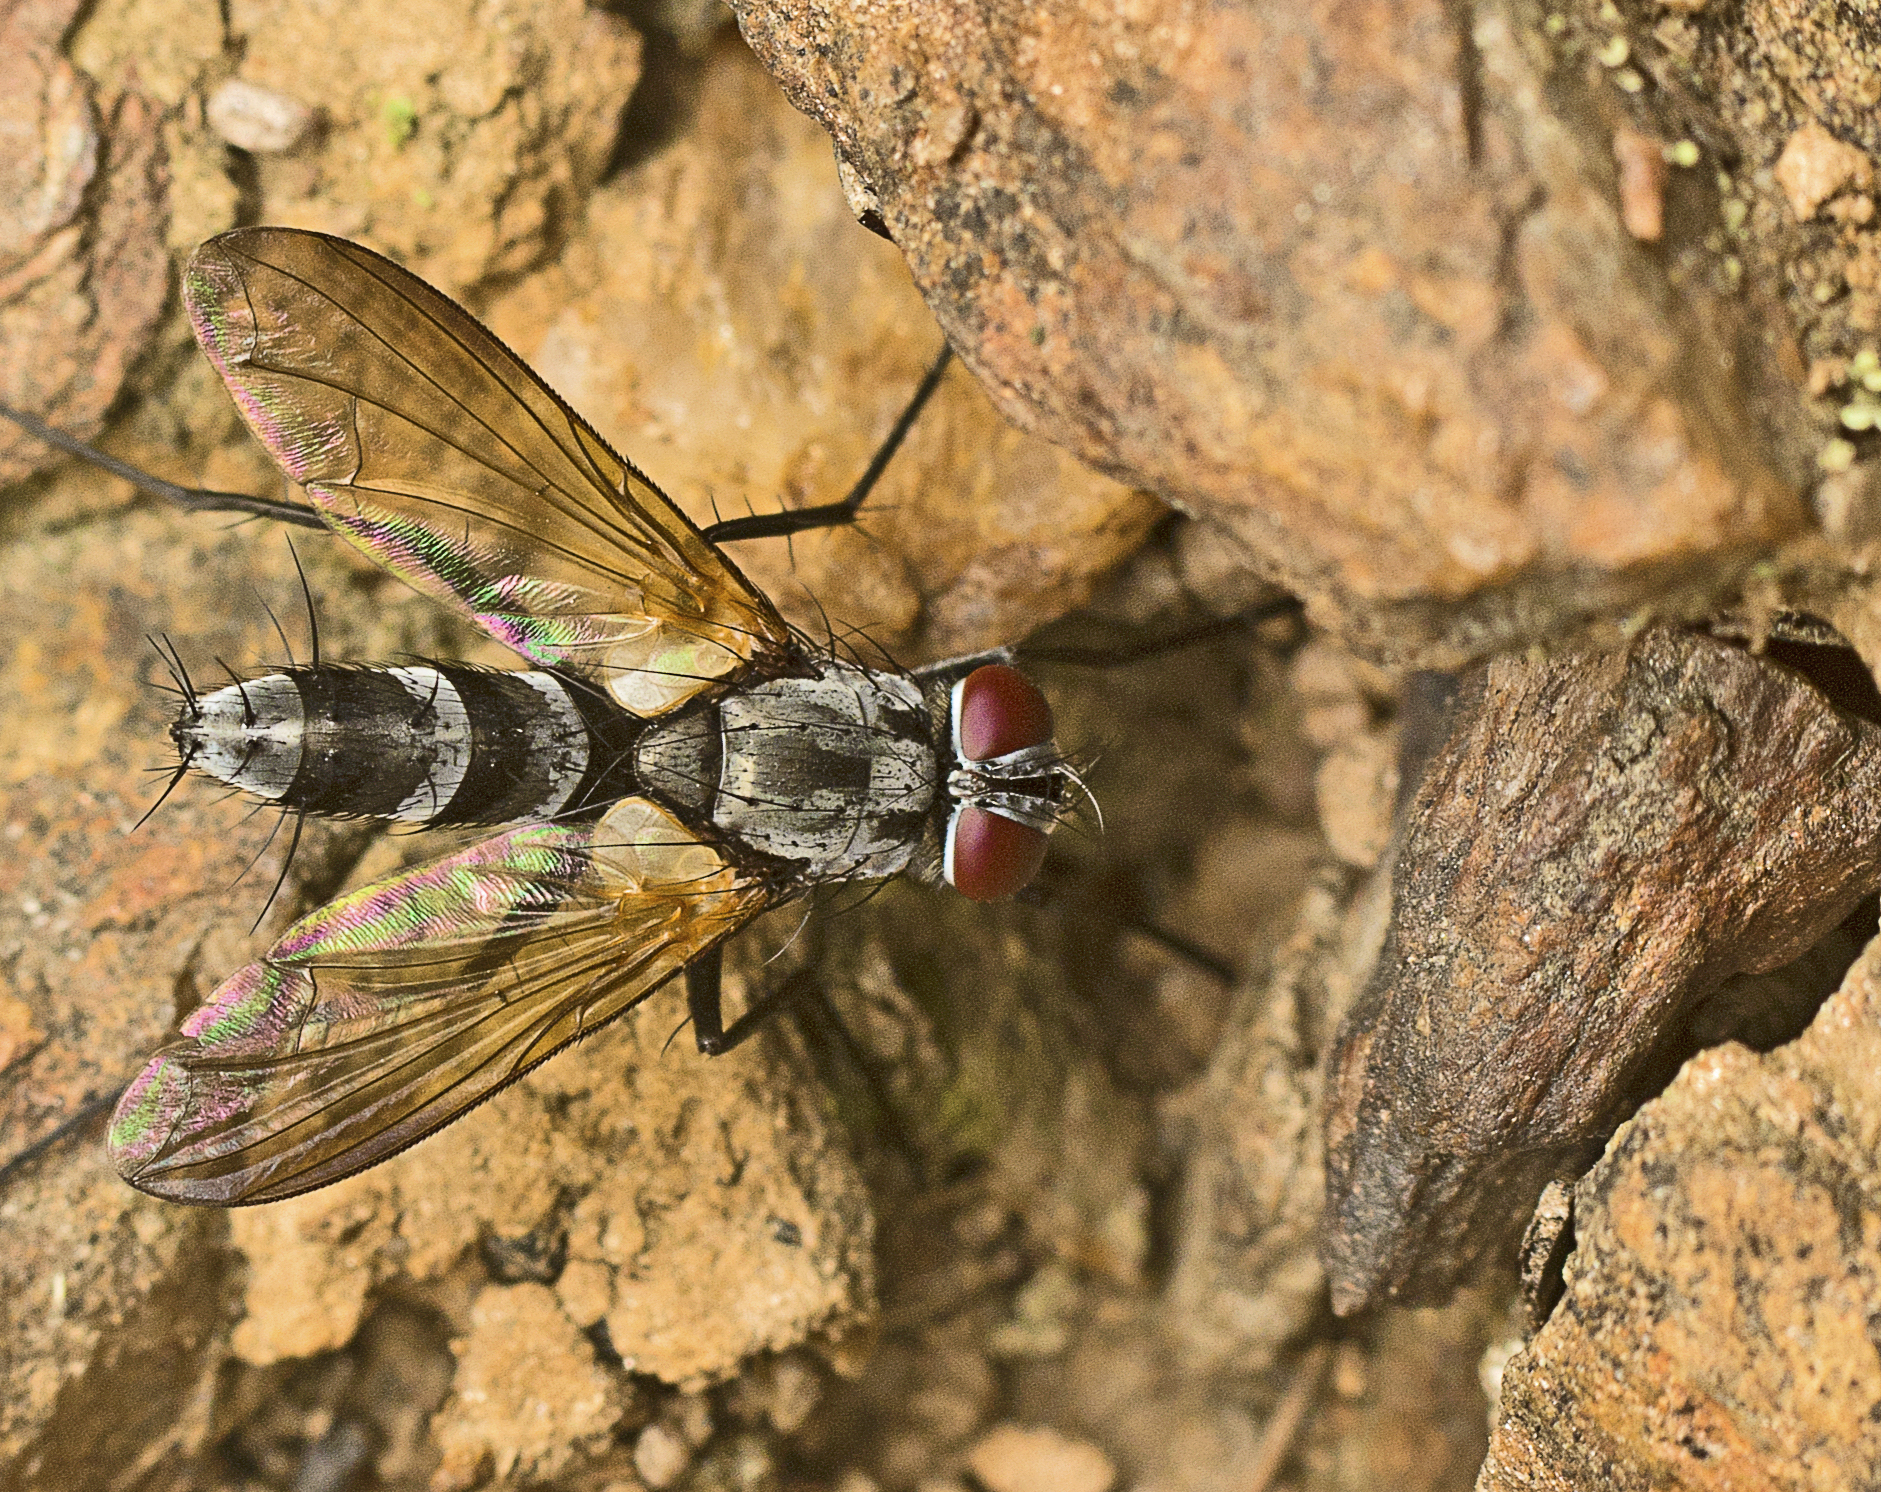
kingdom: Animalia
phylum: Arthropoda
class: Insecta
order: Diptera
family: Tachinidae
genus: Sumpigaster
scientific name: Sumpigaster fasciata
